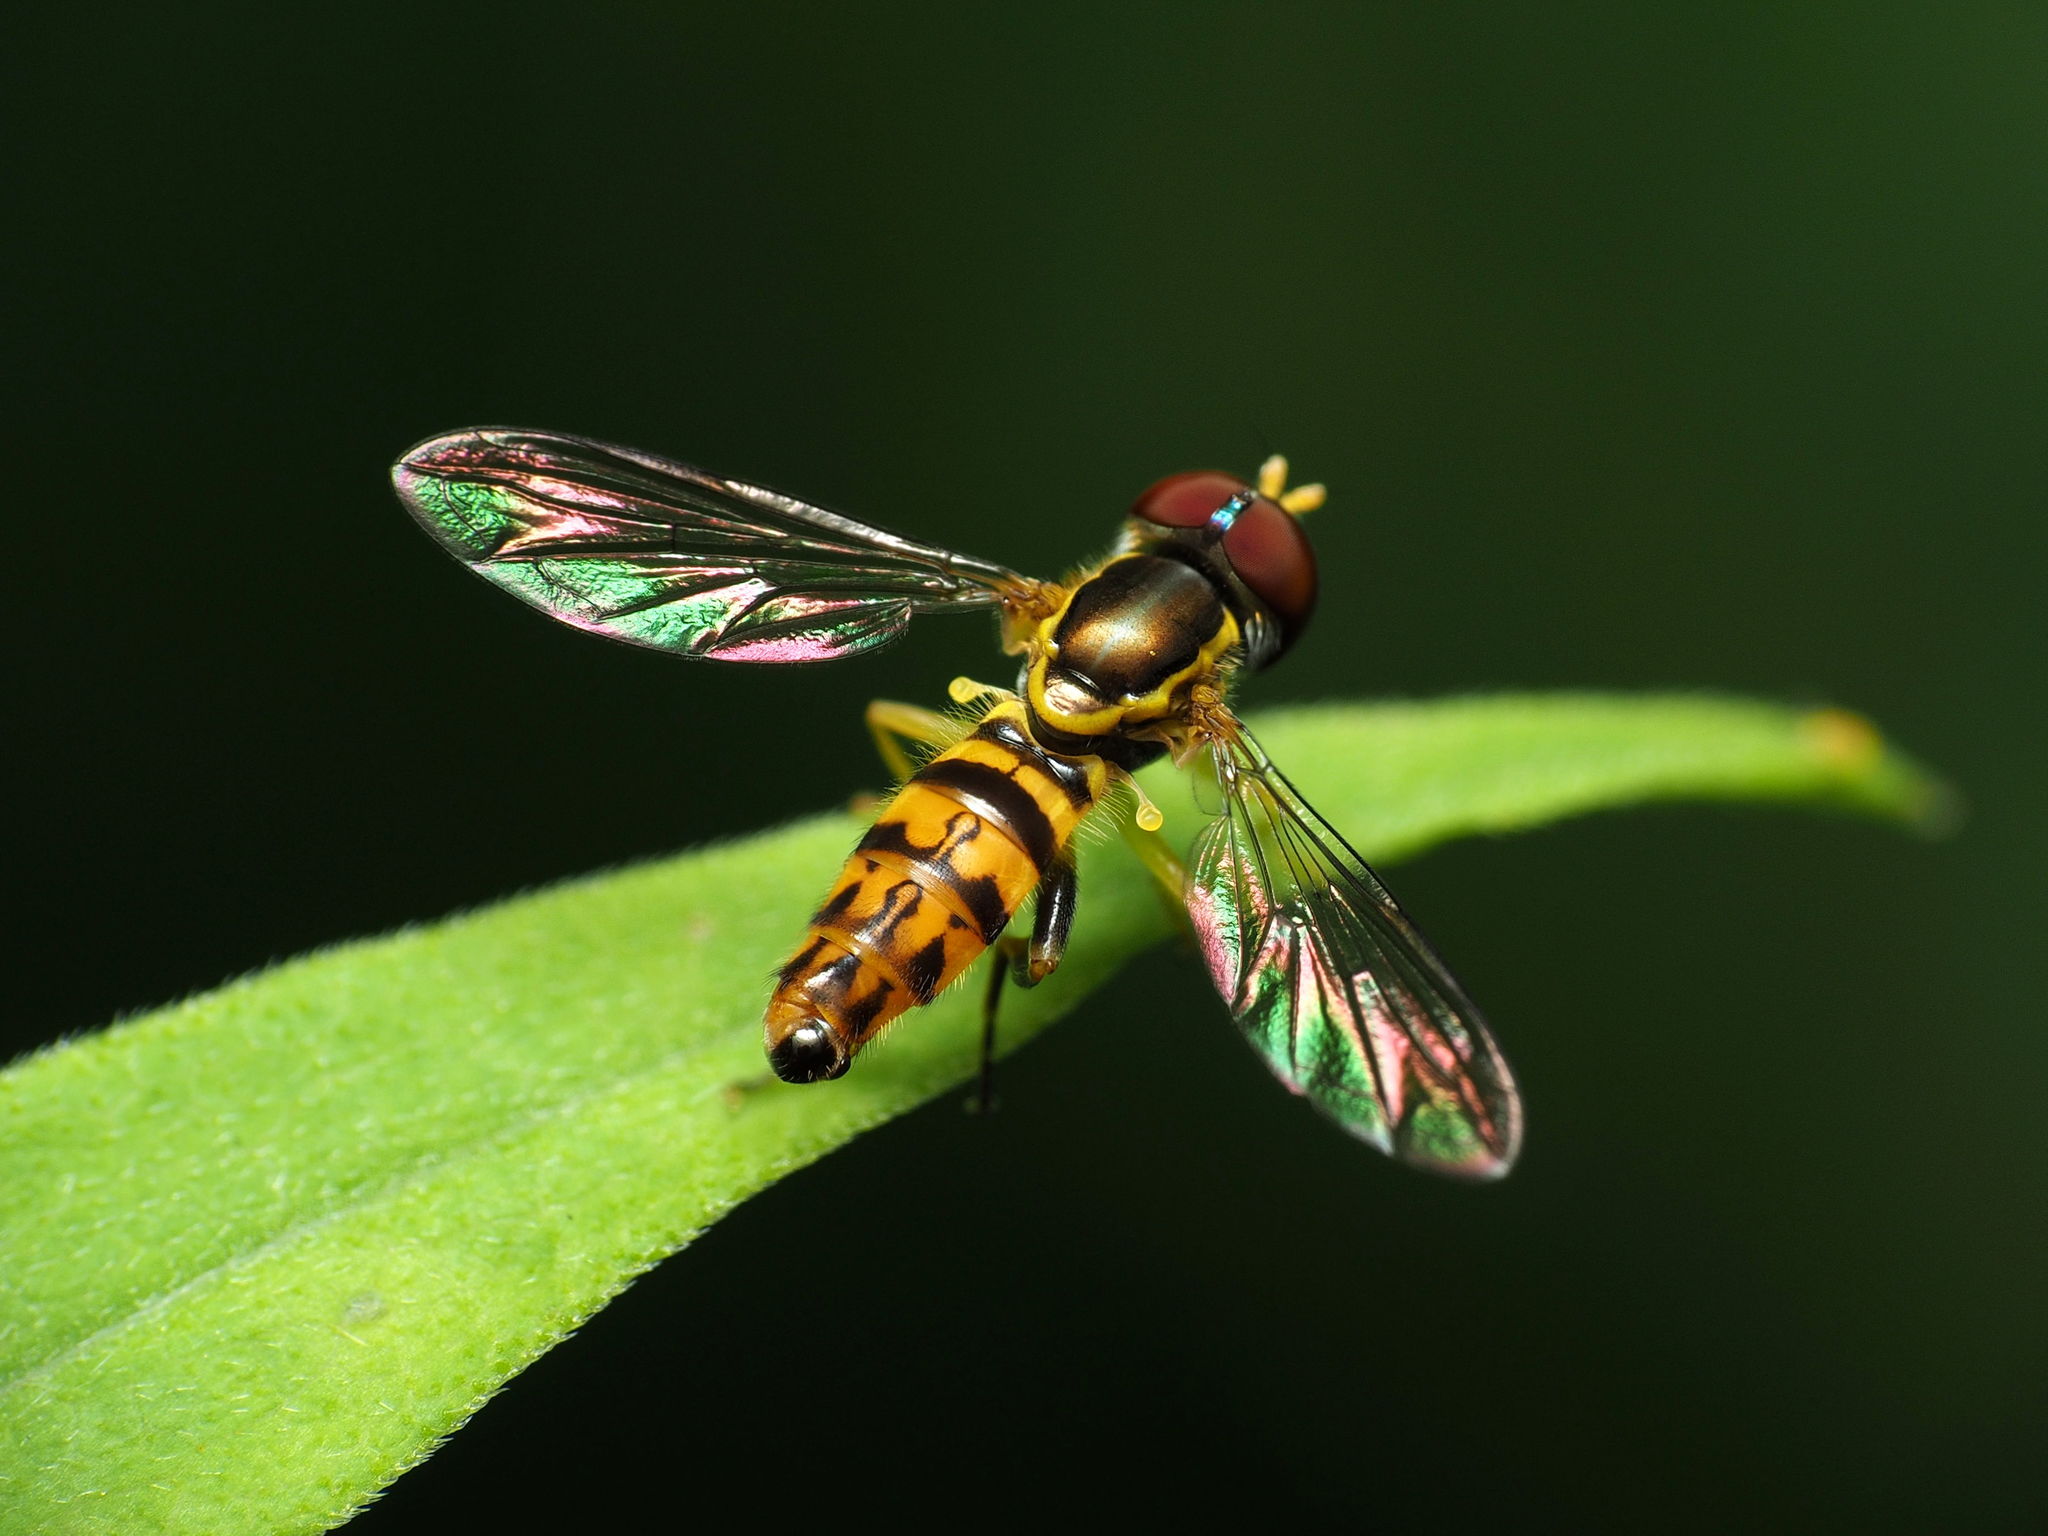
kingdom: Animalia
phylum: Arthropoda
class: Insecta
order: Diptera
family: Syrphidae
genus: Toxomerus
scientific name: Toxomerus geminatus
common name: Eastern calligrapher
